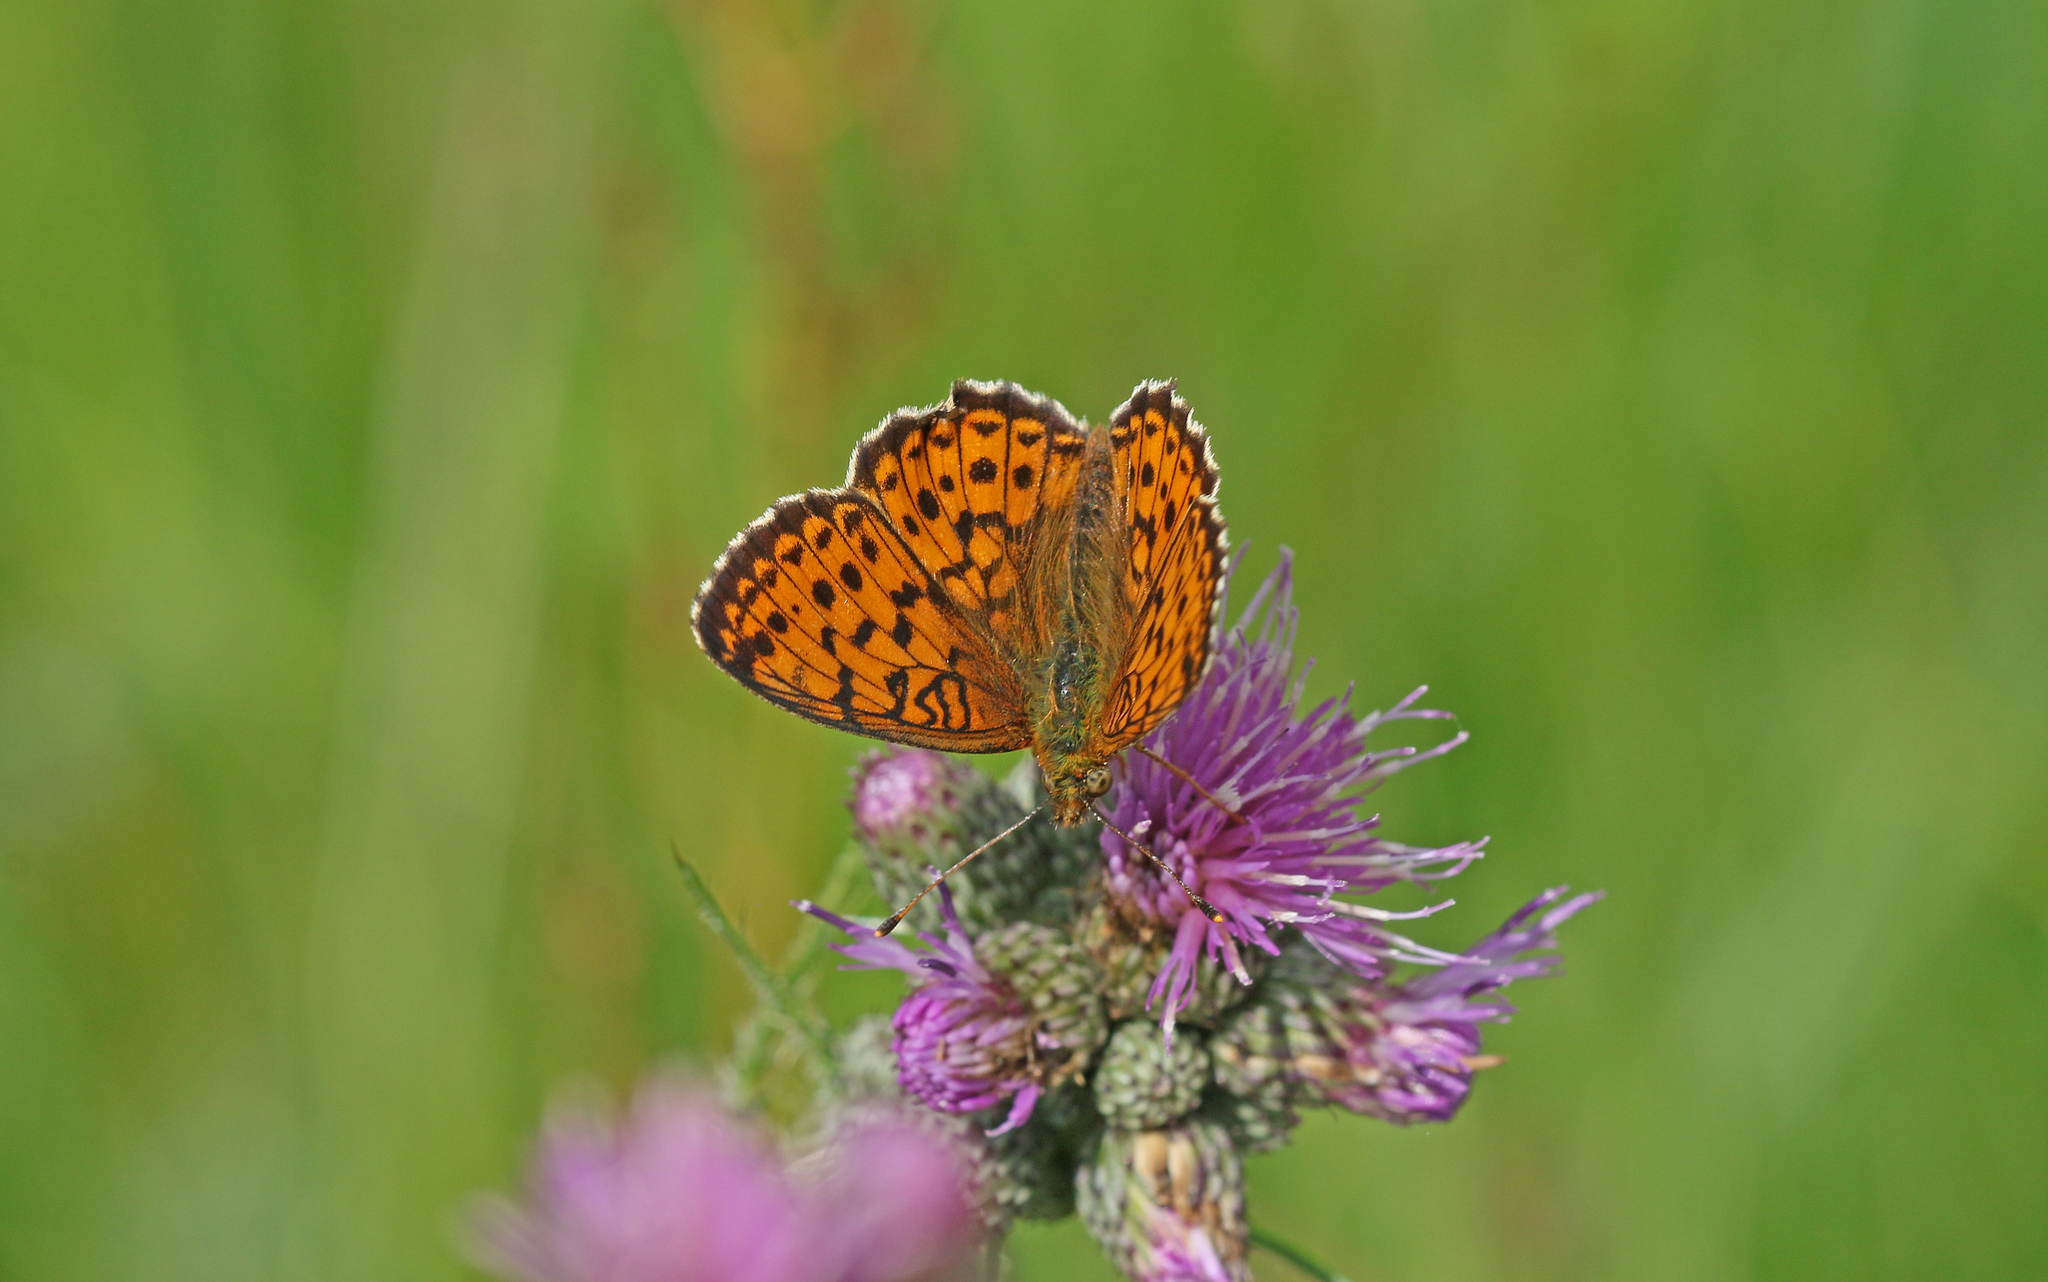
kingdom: Animalia
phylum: Arthropoda
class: Insecta
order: Lepidoptera
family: Nymphalidae
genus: Brenthis
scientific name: Brenthis ino
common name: Lesser marbled fritillary
